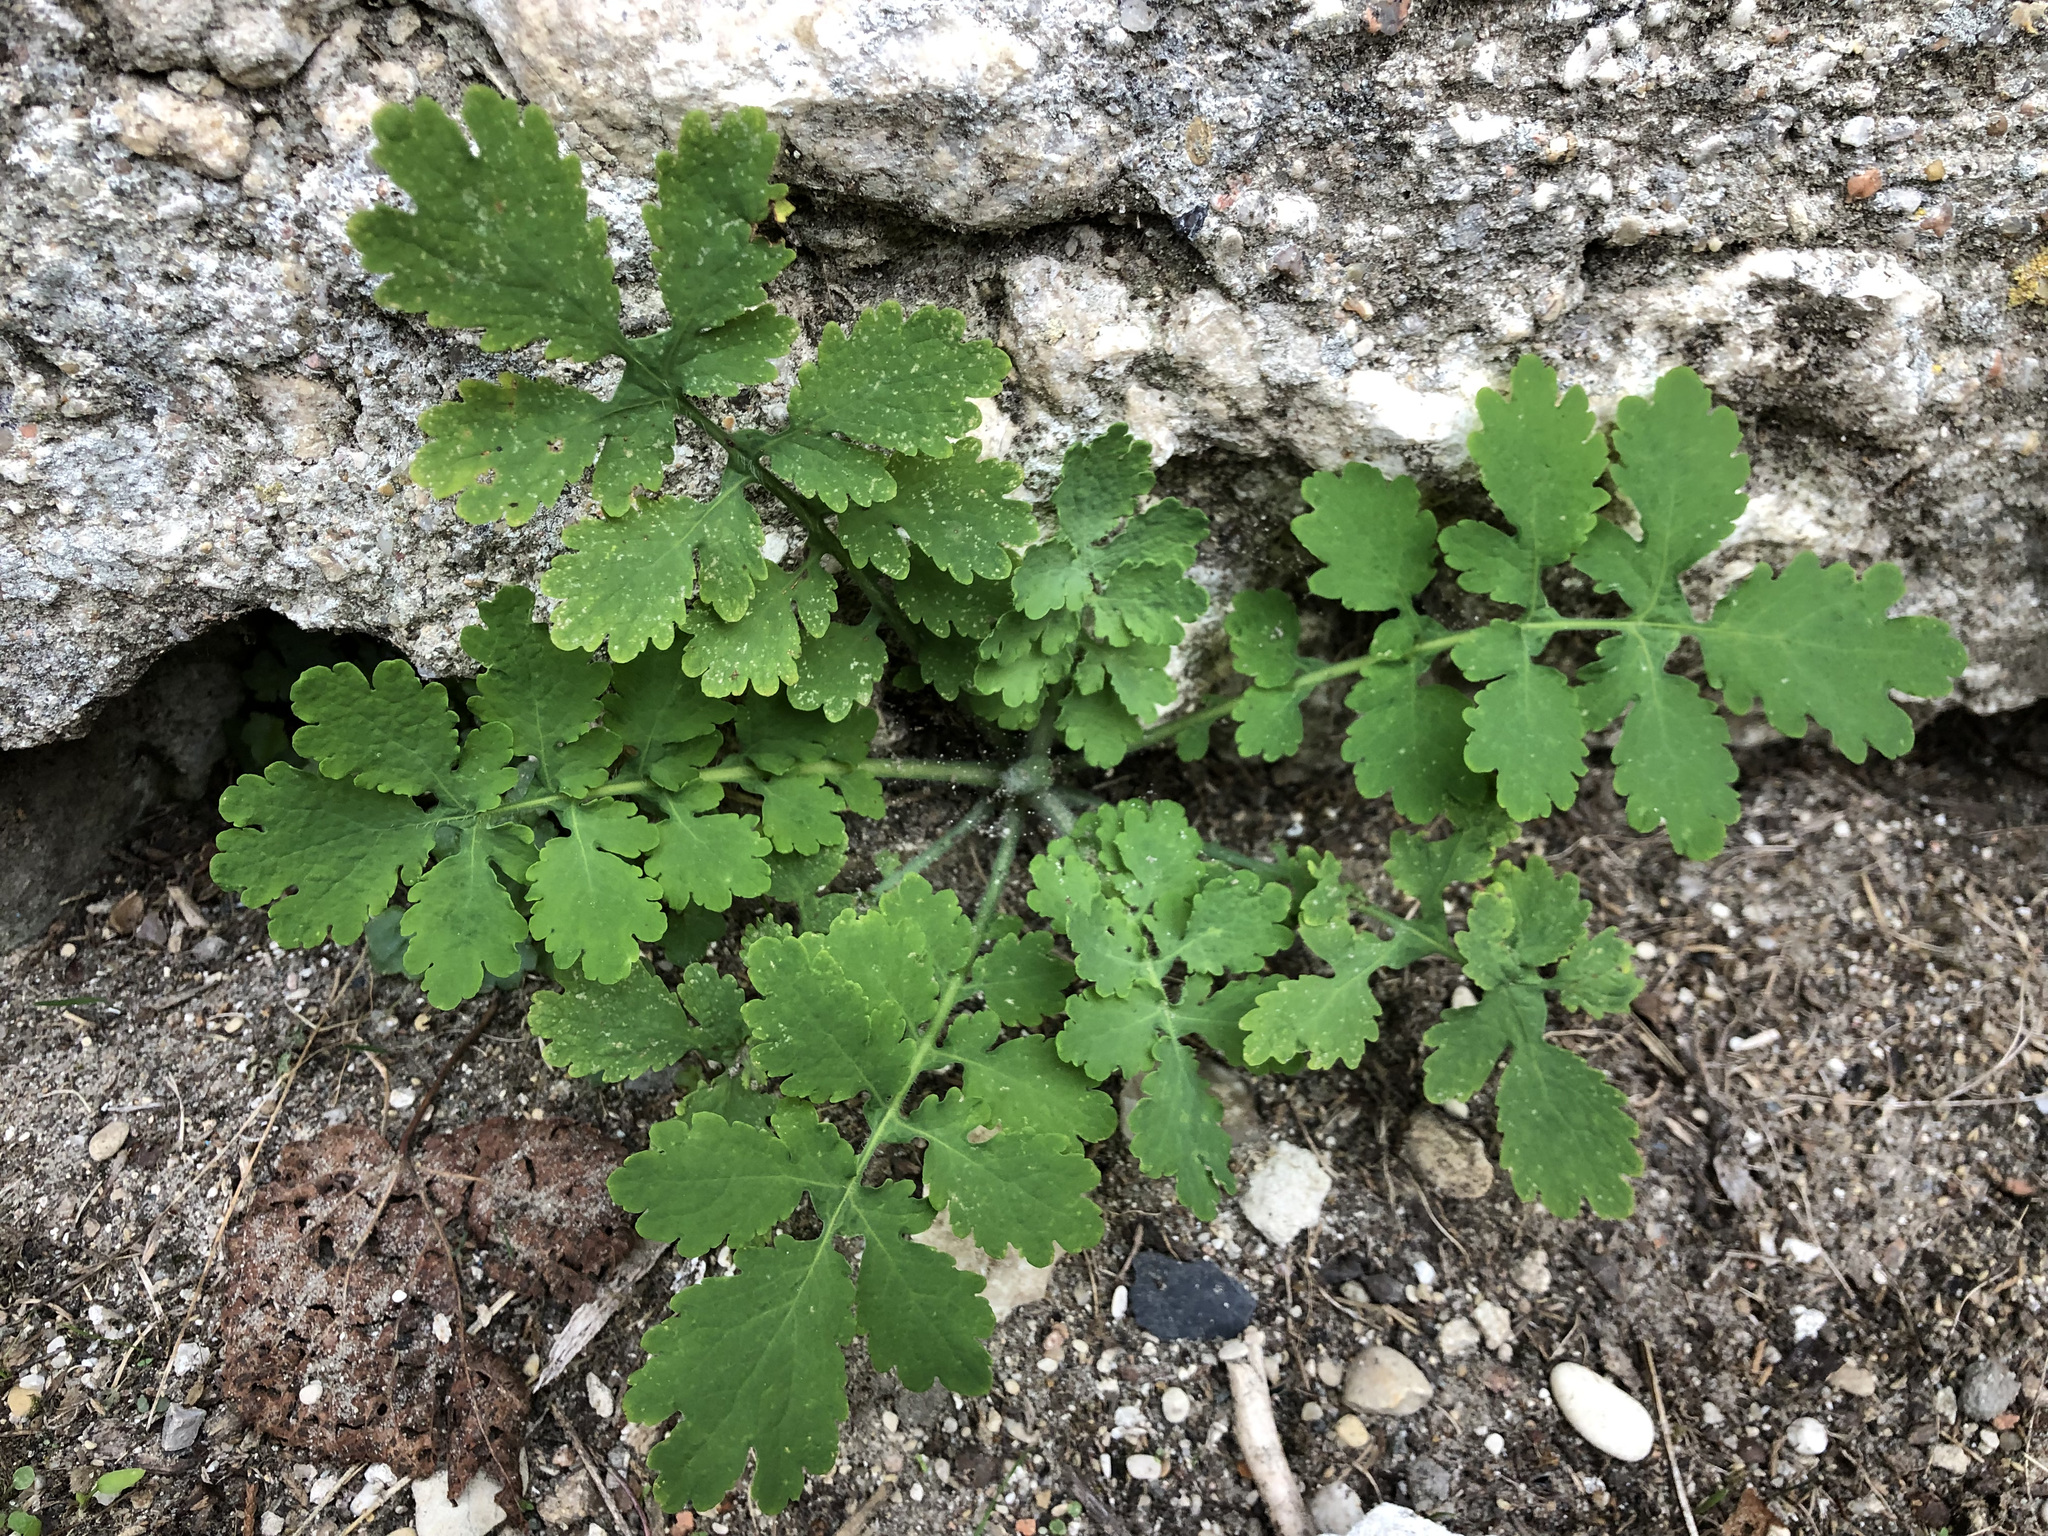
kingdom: Plantae
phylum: Tracheophyta
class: Magnoliopsida
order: Ranunculales
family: Papaveraceae
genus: Chelidonium
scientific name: Chelidonium majus
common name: Greater celandine
